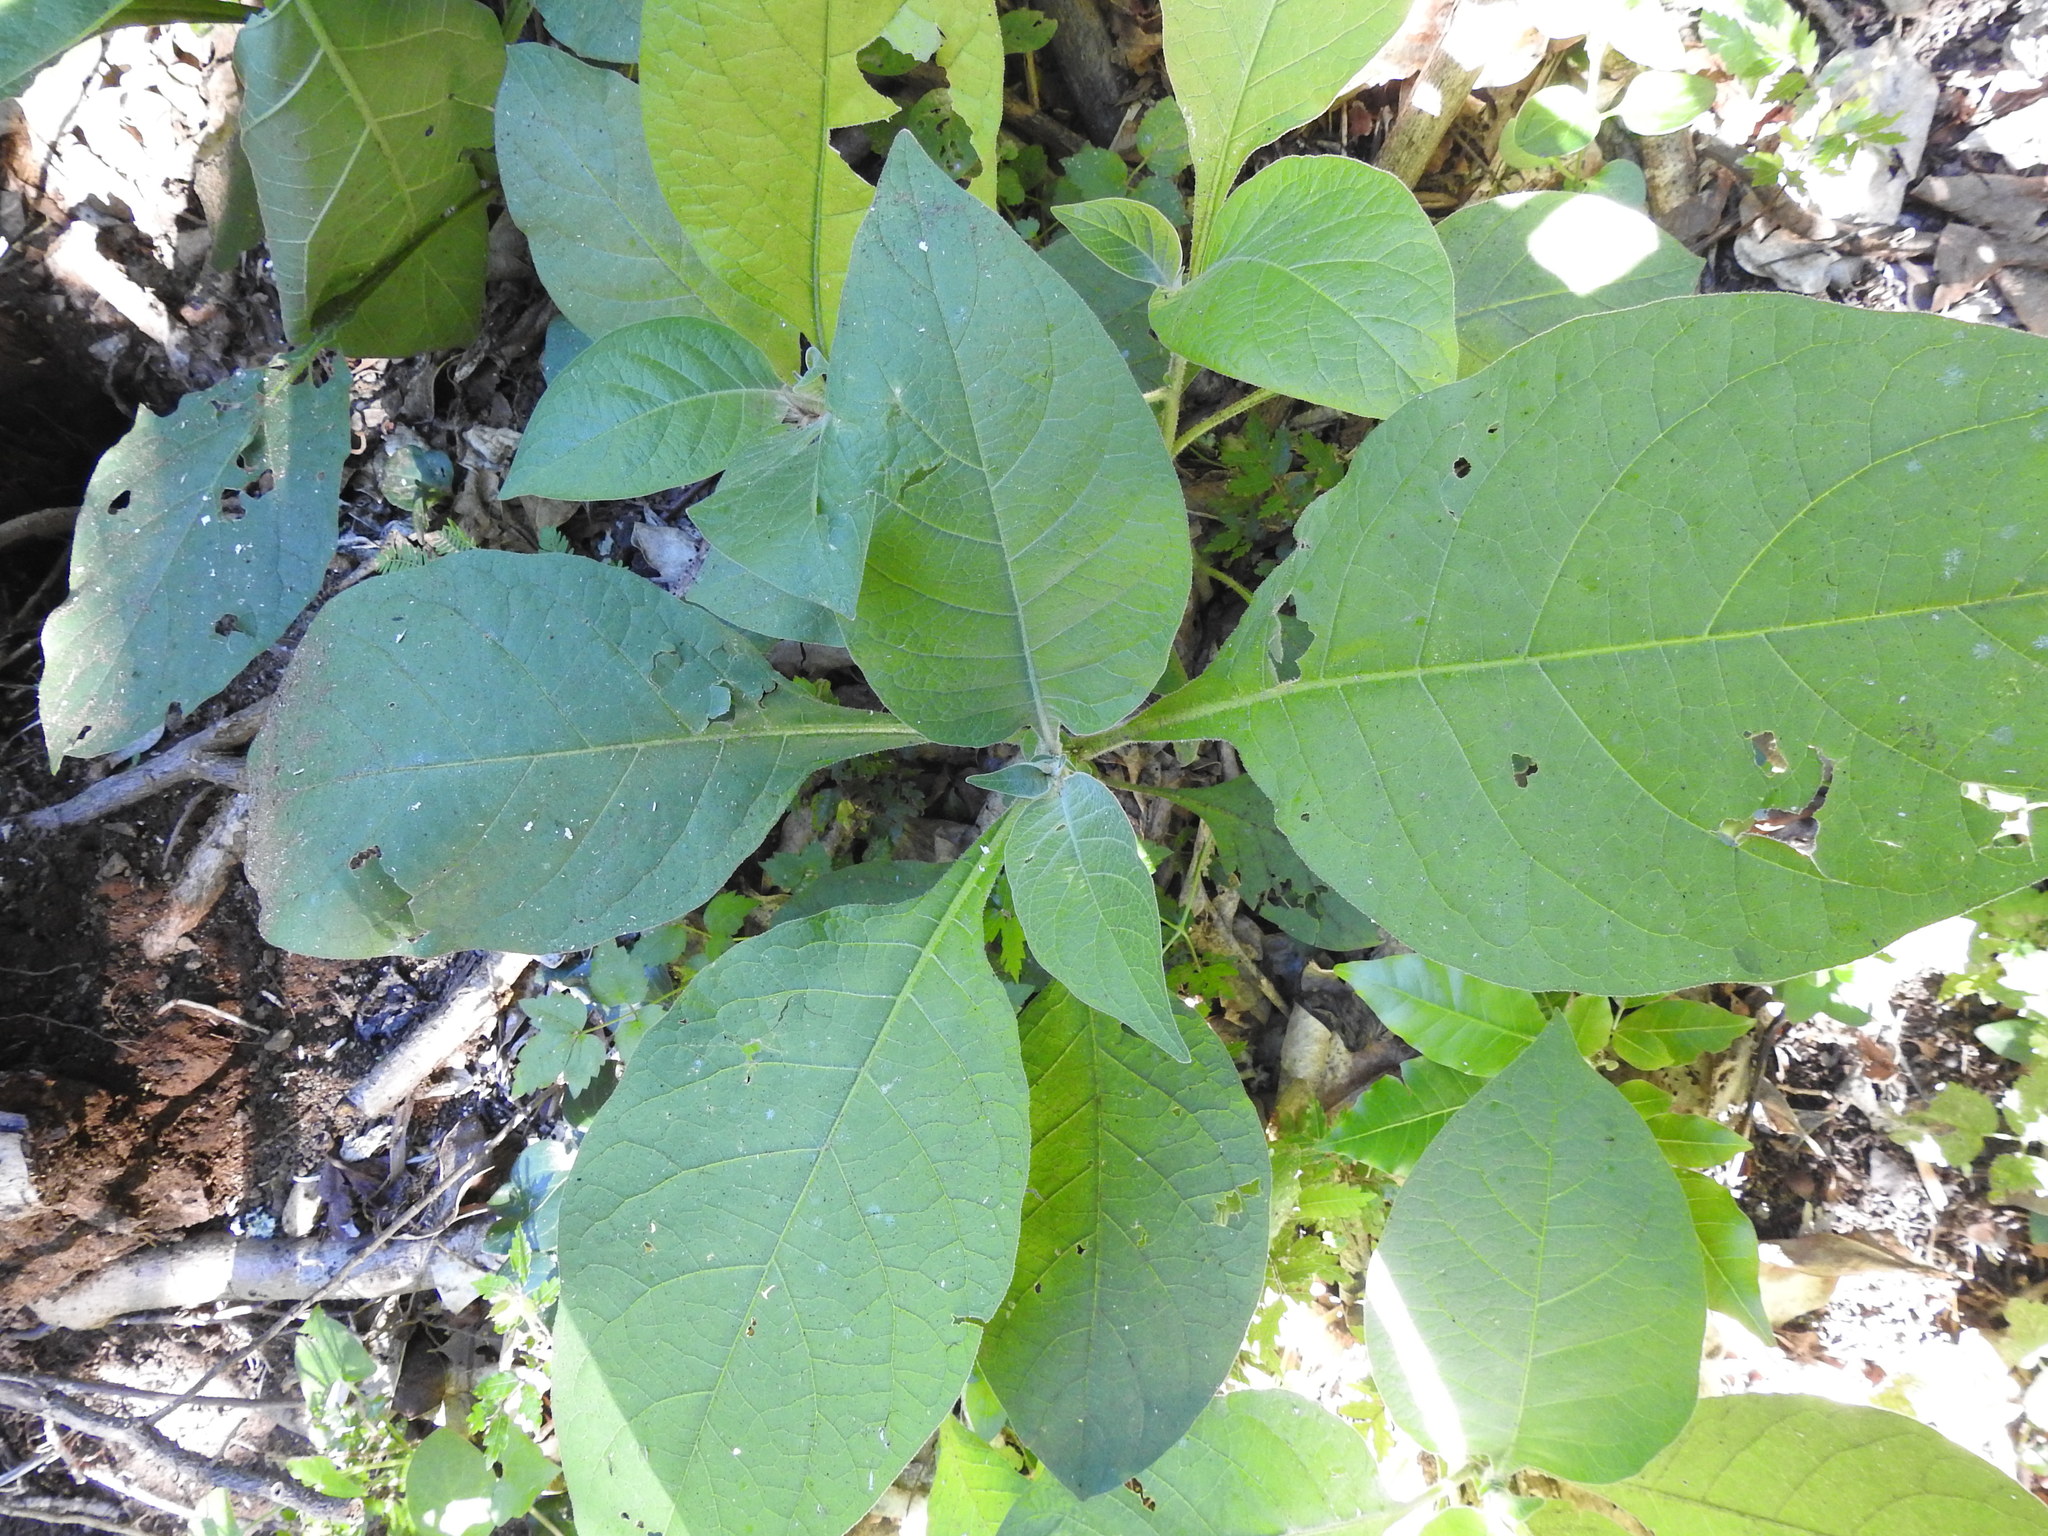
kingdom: Plantae
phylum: Tracheophyta
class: Magnoliopsida
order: Solanales
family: Solanaceae
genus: Solanum
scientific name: Solanum mauritianum
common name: Earleaf nightshade
